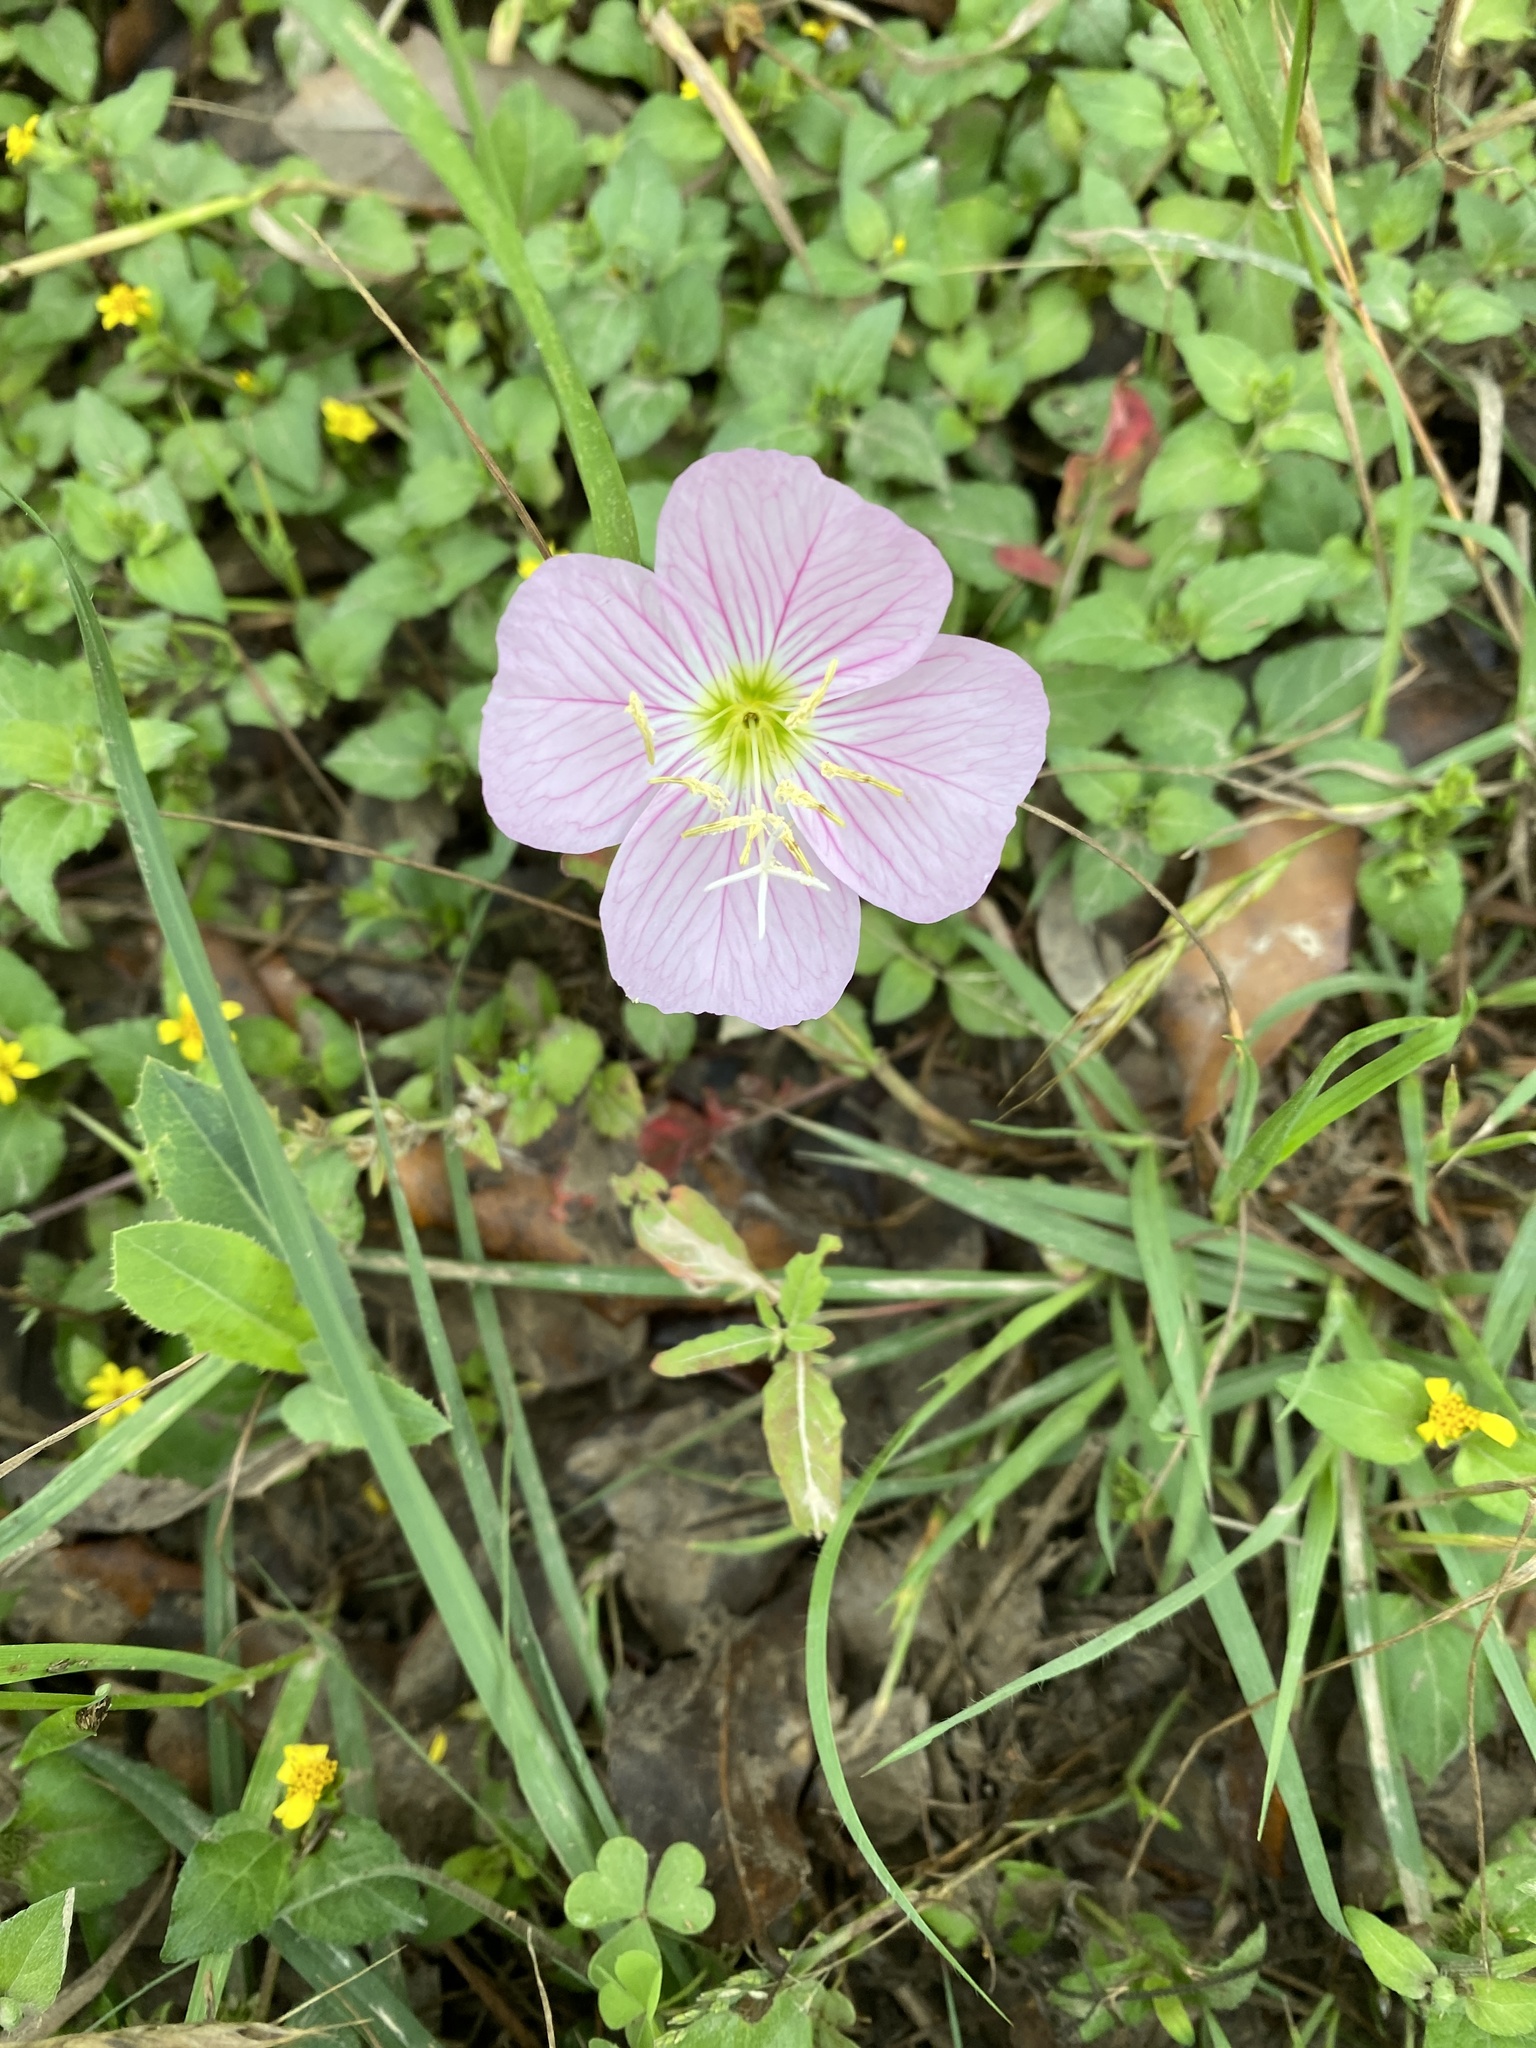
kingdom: Plantae
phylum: Tracheophyta
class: Magnoliopsida
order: Myrtales
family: Onagraceae
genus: Oenothera
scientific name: Oenothera speciosa
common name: White evening-primrose
